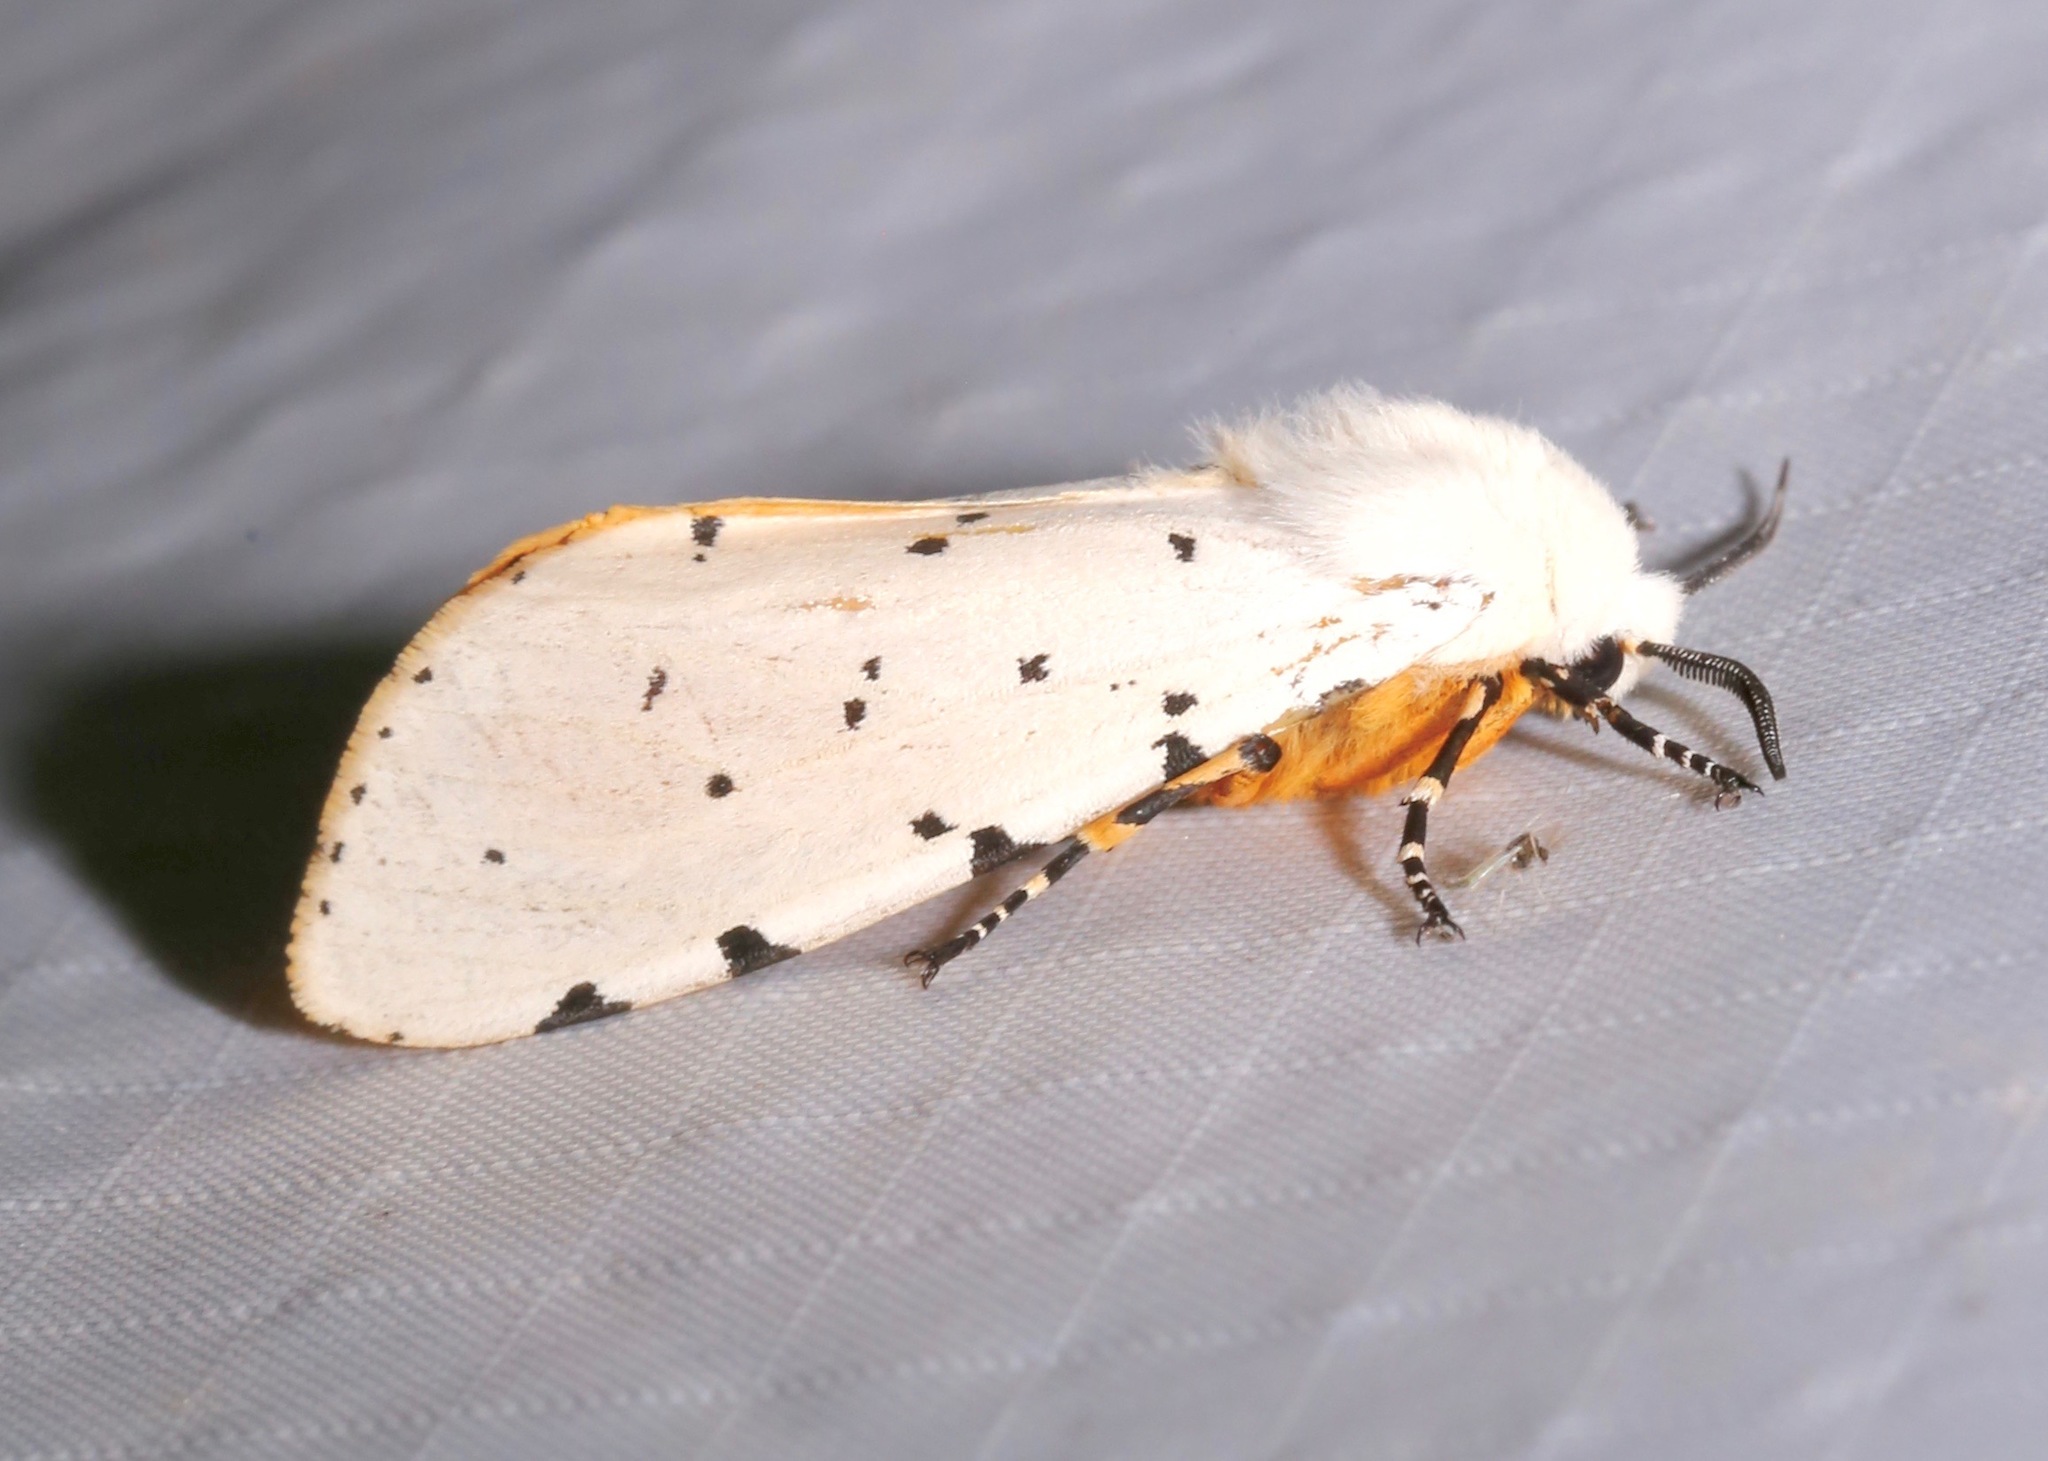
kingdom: Animalia
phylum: Arthropoda
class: Insecta
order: Lepidoptera
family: Erebidae
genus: Estigmene
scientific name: Estigmene acrea
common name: Salt marsh moth
